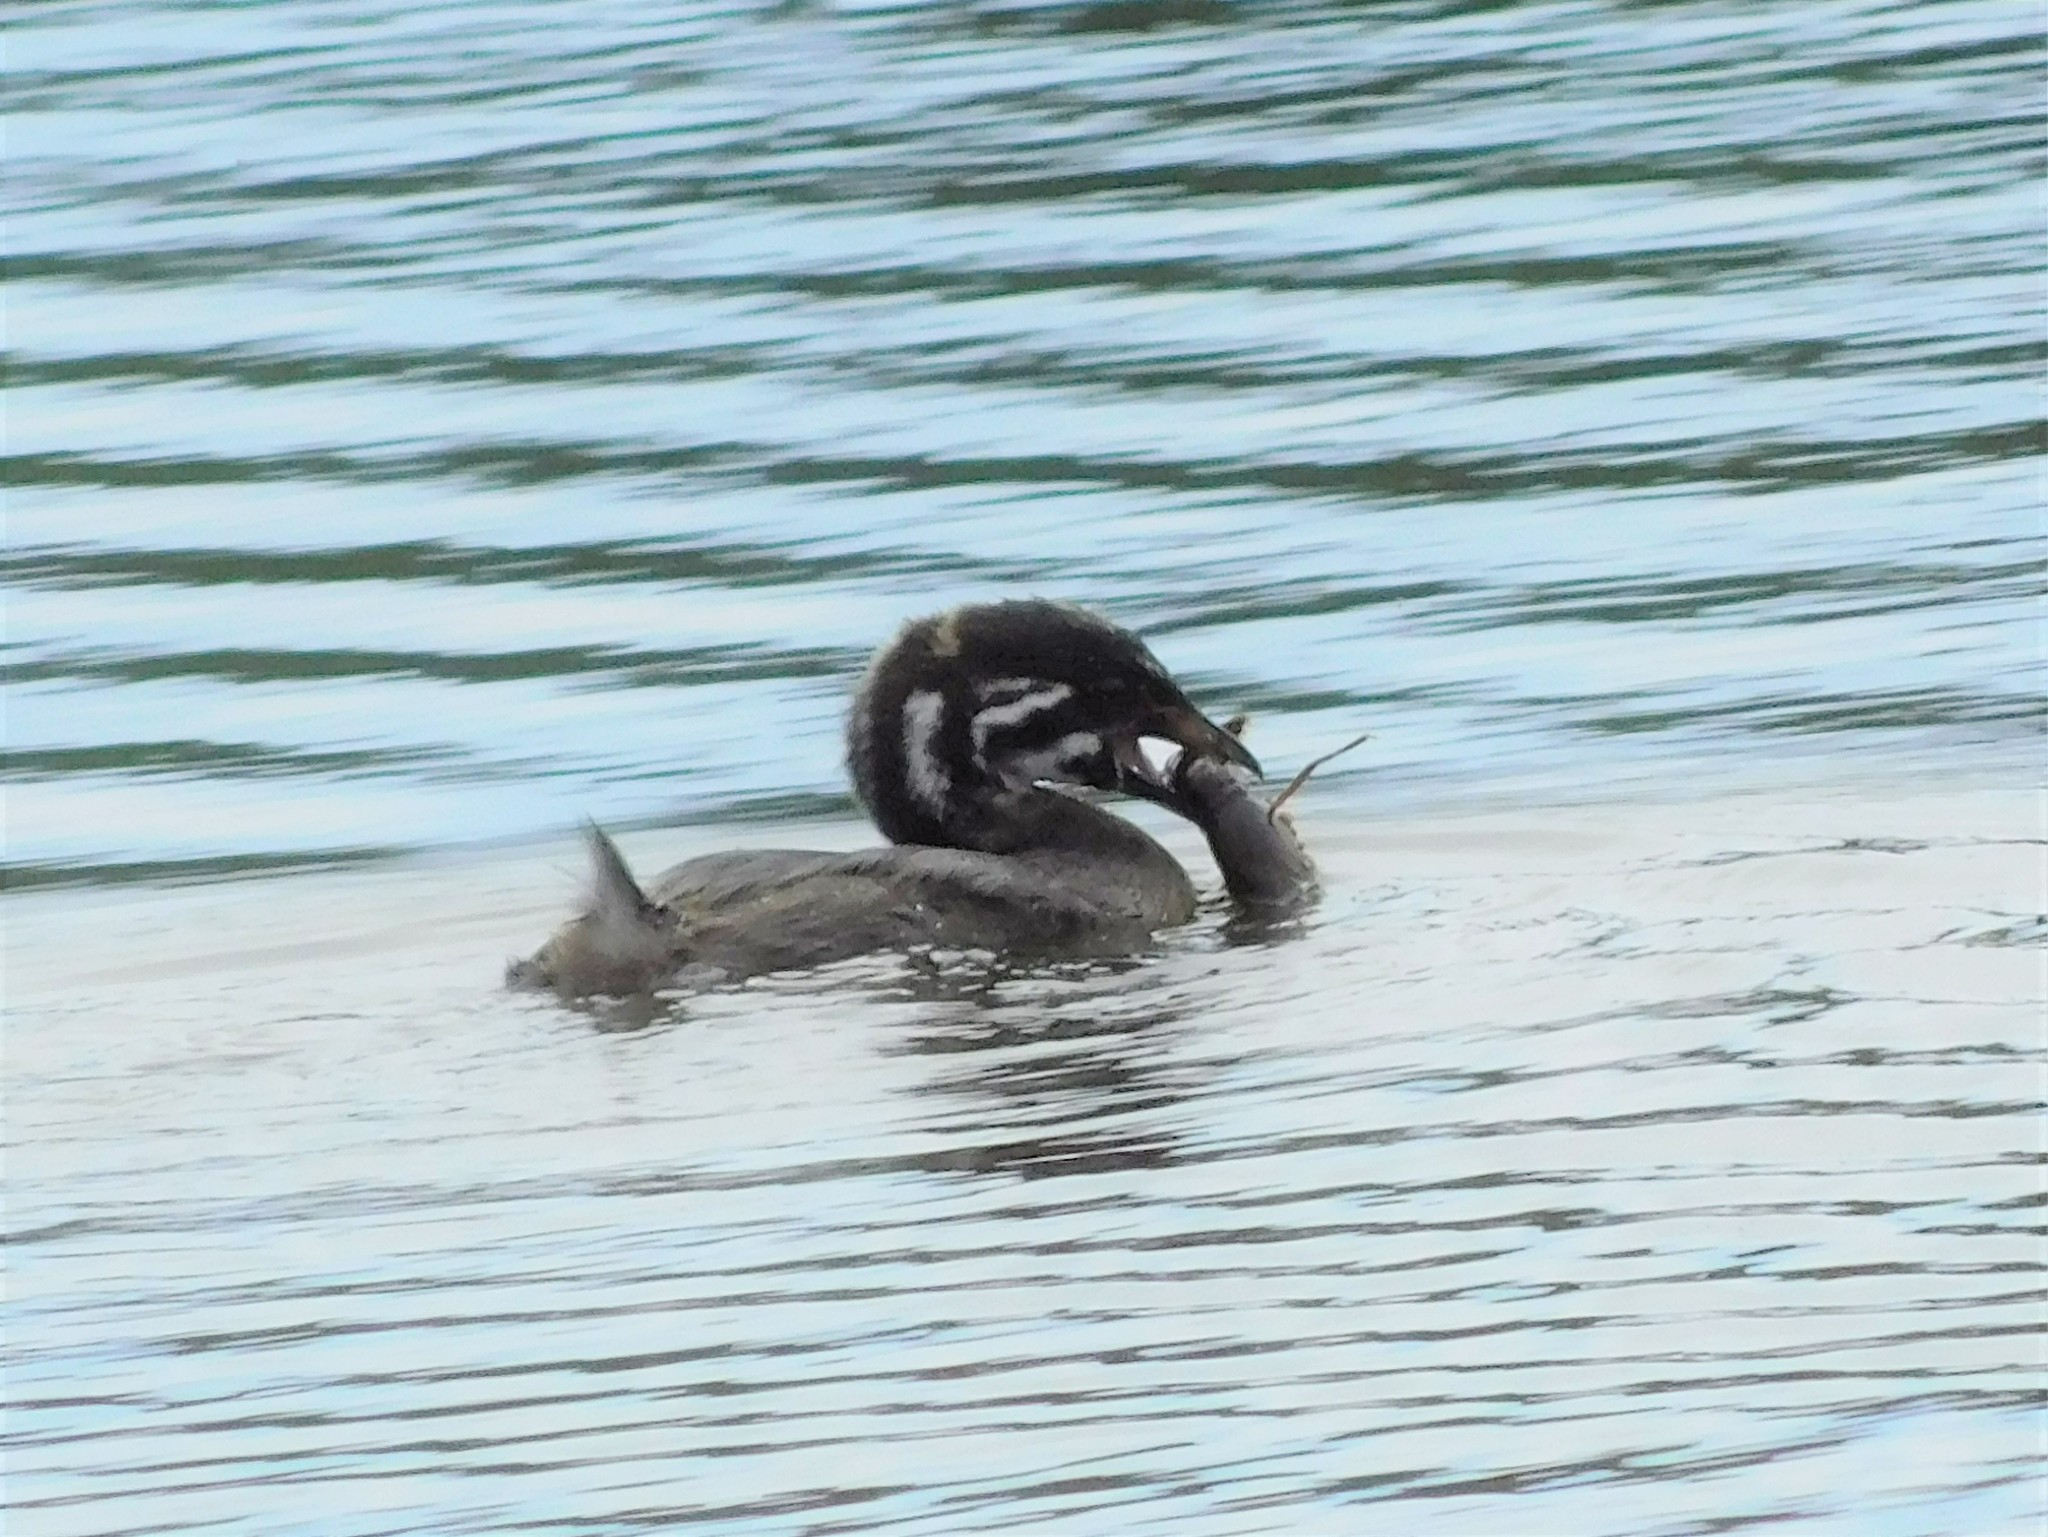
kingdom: Animalia
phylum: Chordata
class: Aves
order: Podicipediformes
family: Podicipedidae
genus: Podilymbus
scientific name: Podilymbus podiceps
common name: Pied-billed grebe
